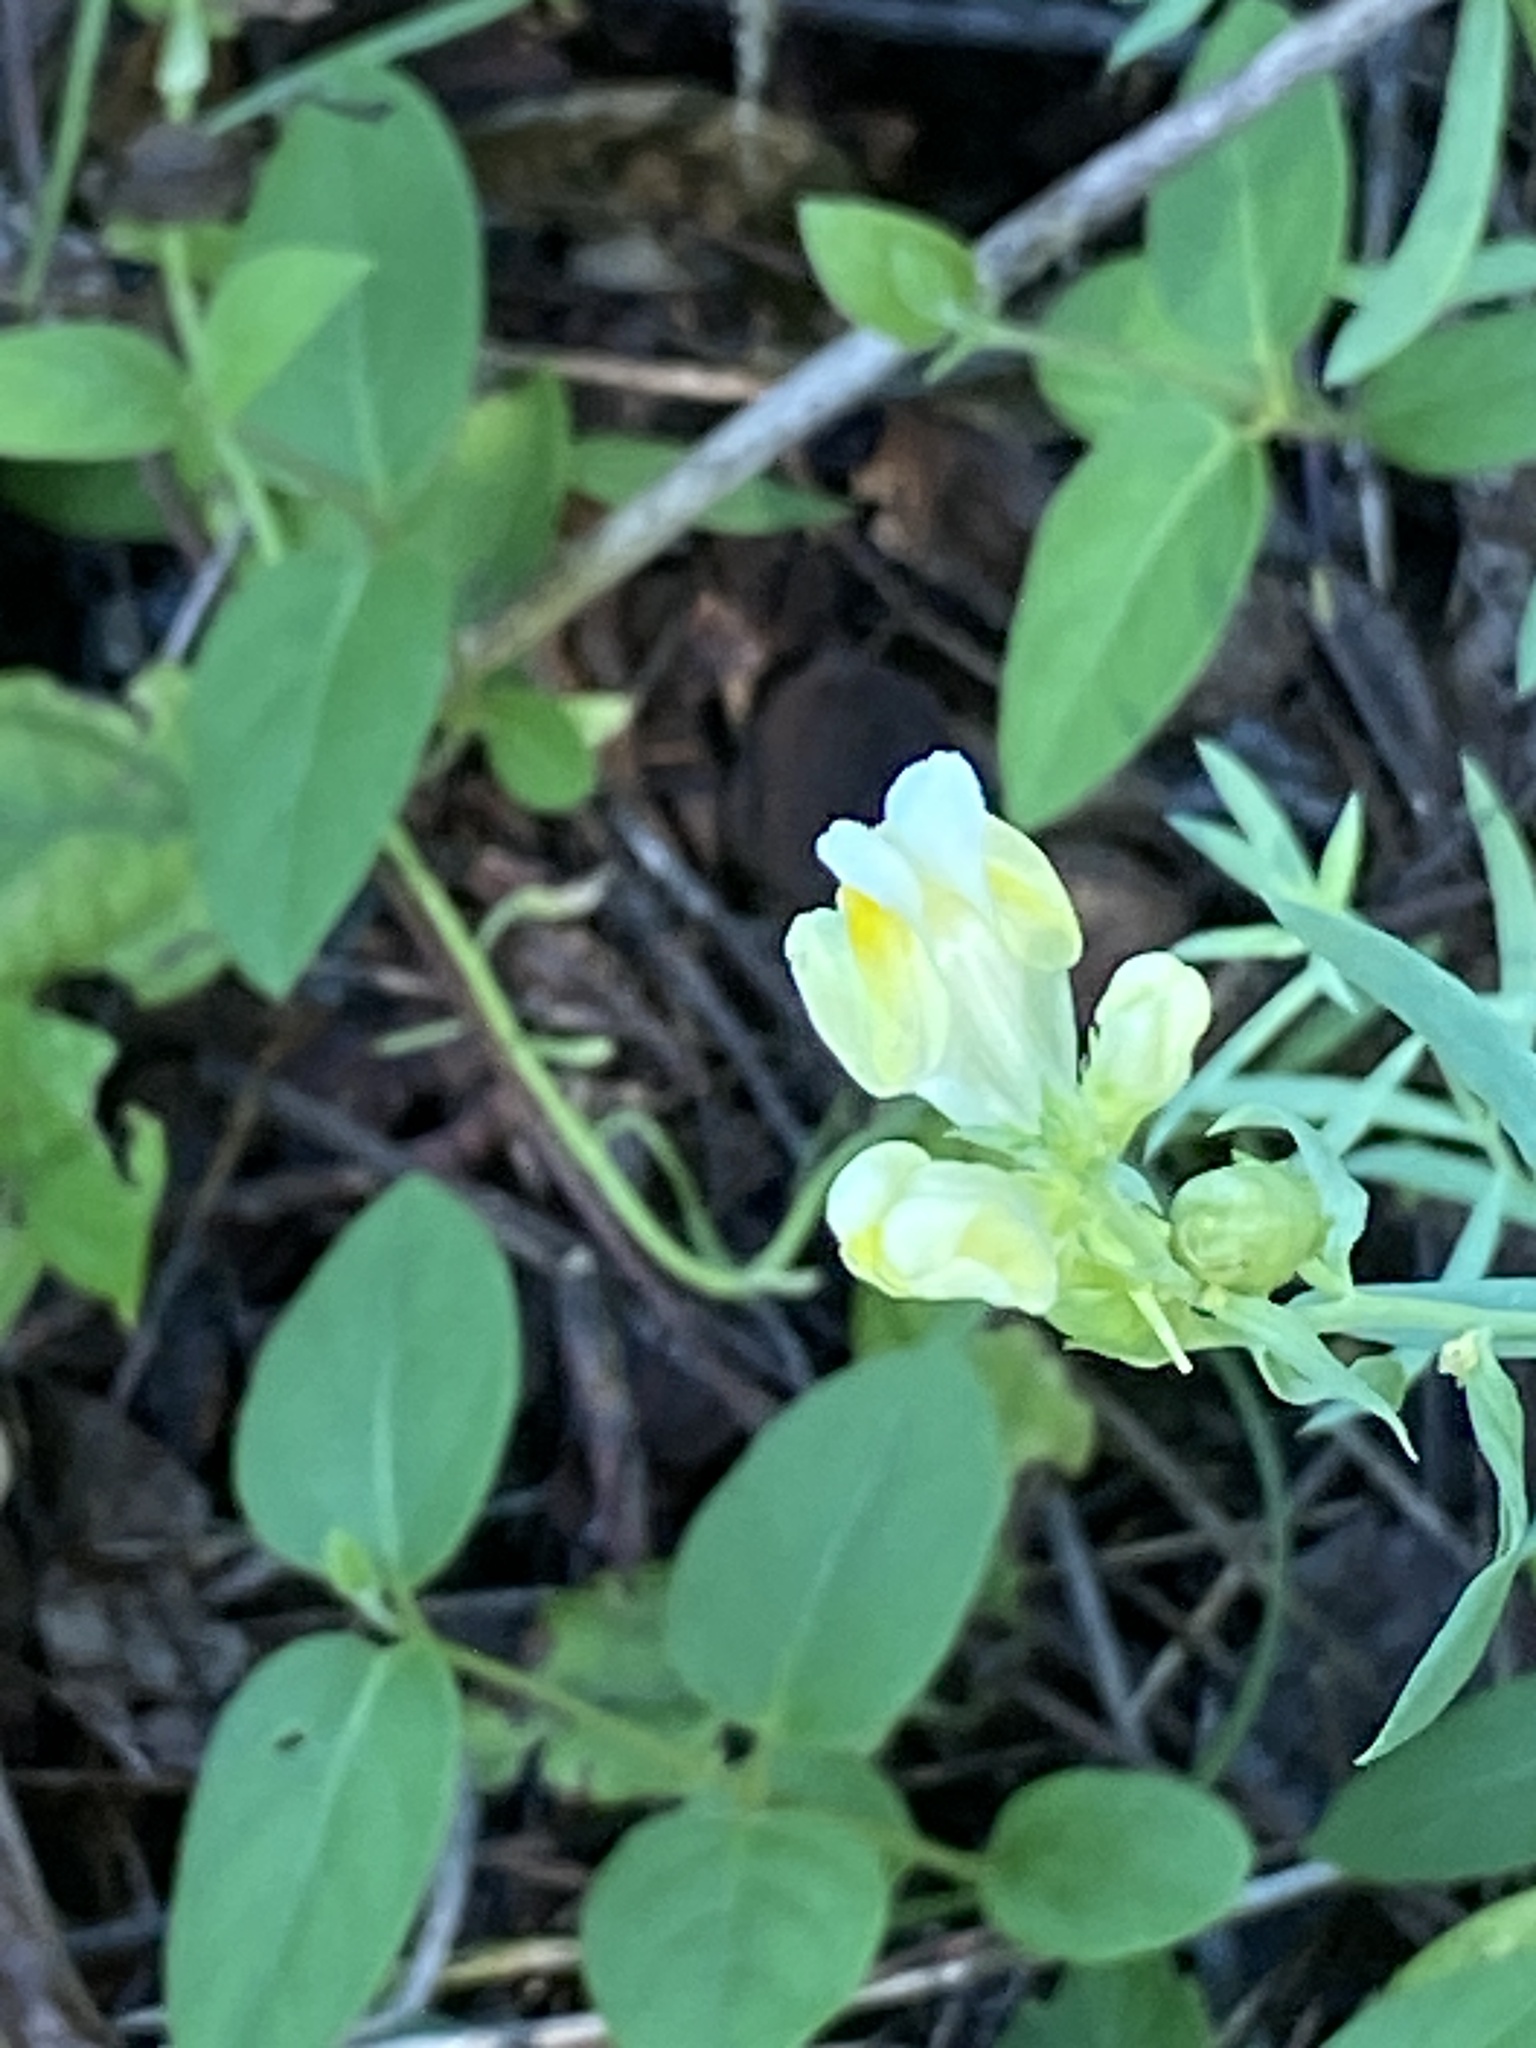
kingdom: Plantae
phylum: Tracheophyta
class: Magnoliopsida
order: Lamiales
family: Plantaginaceae
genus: Linaria
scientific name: Linaria vulgaris
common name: Butter and eggs
